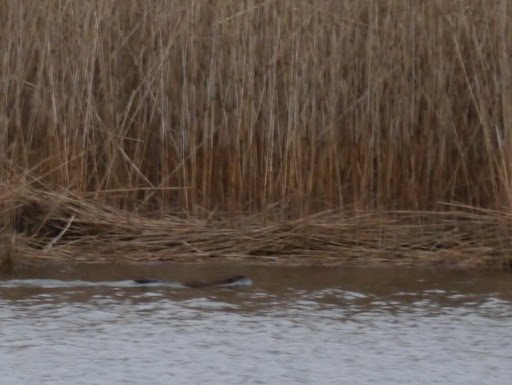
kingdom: Animalia
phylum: Chordata
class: Mammalia
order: Rodentia
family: Cricetidae
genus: Ondatra
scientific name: Ondatra zibethicus
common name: Muskrat
